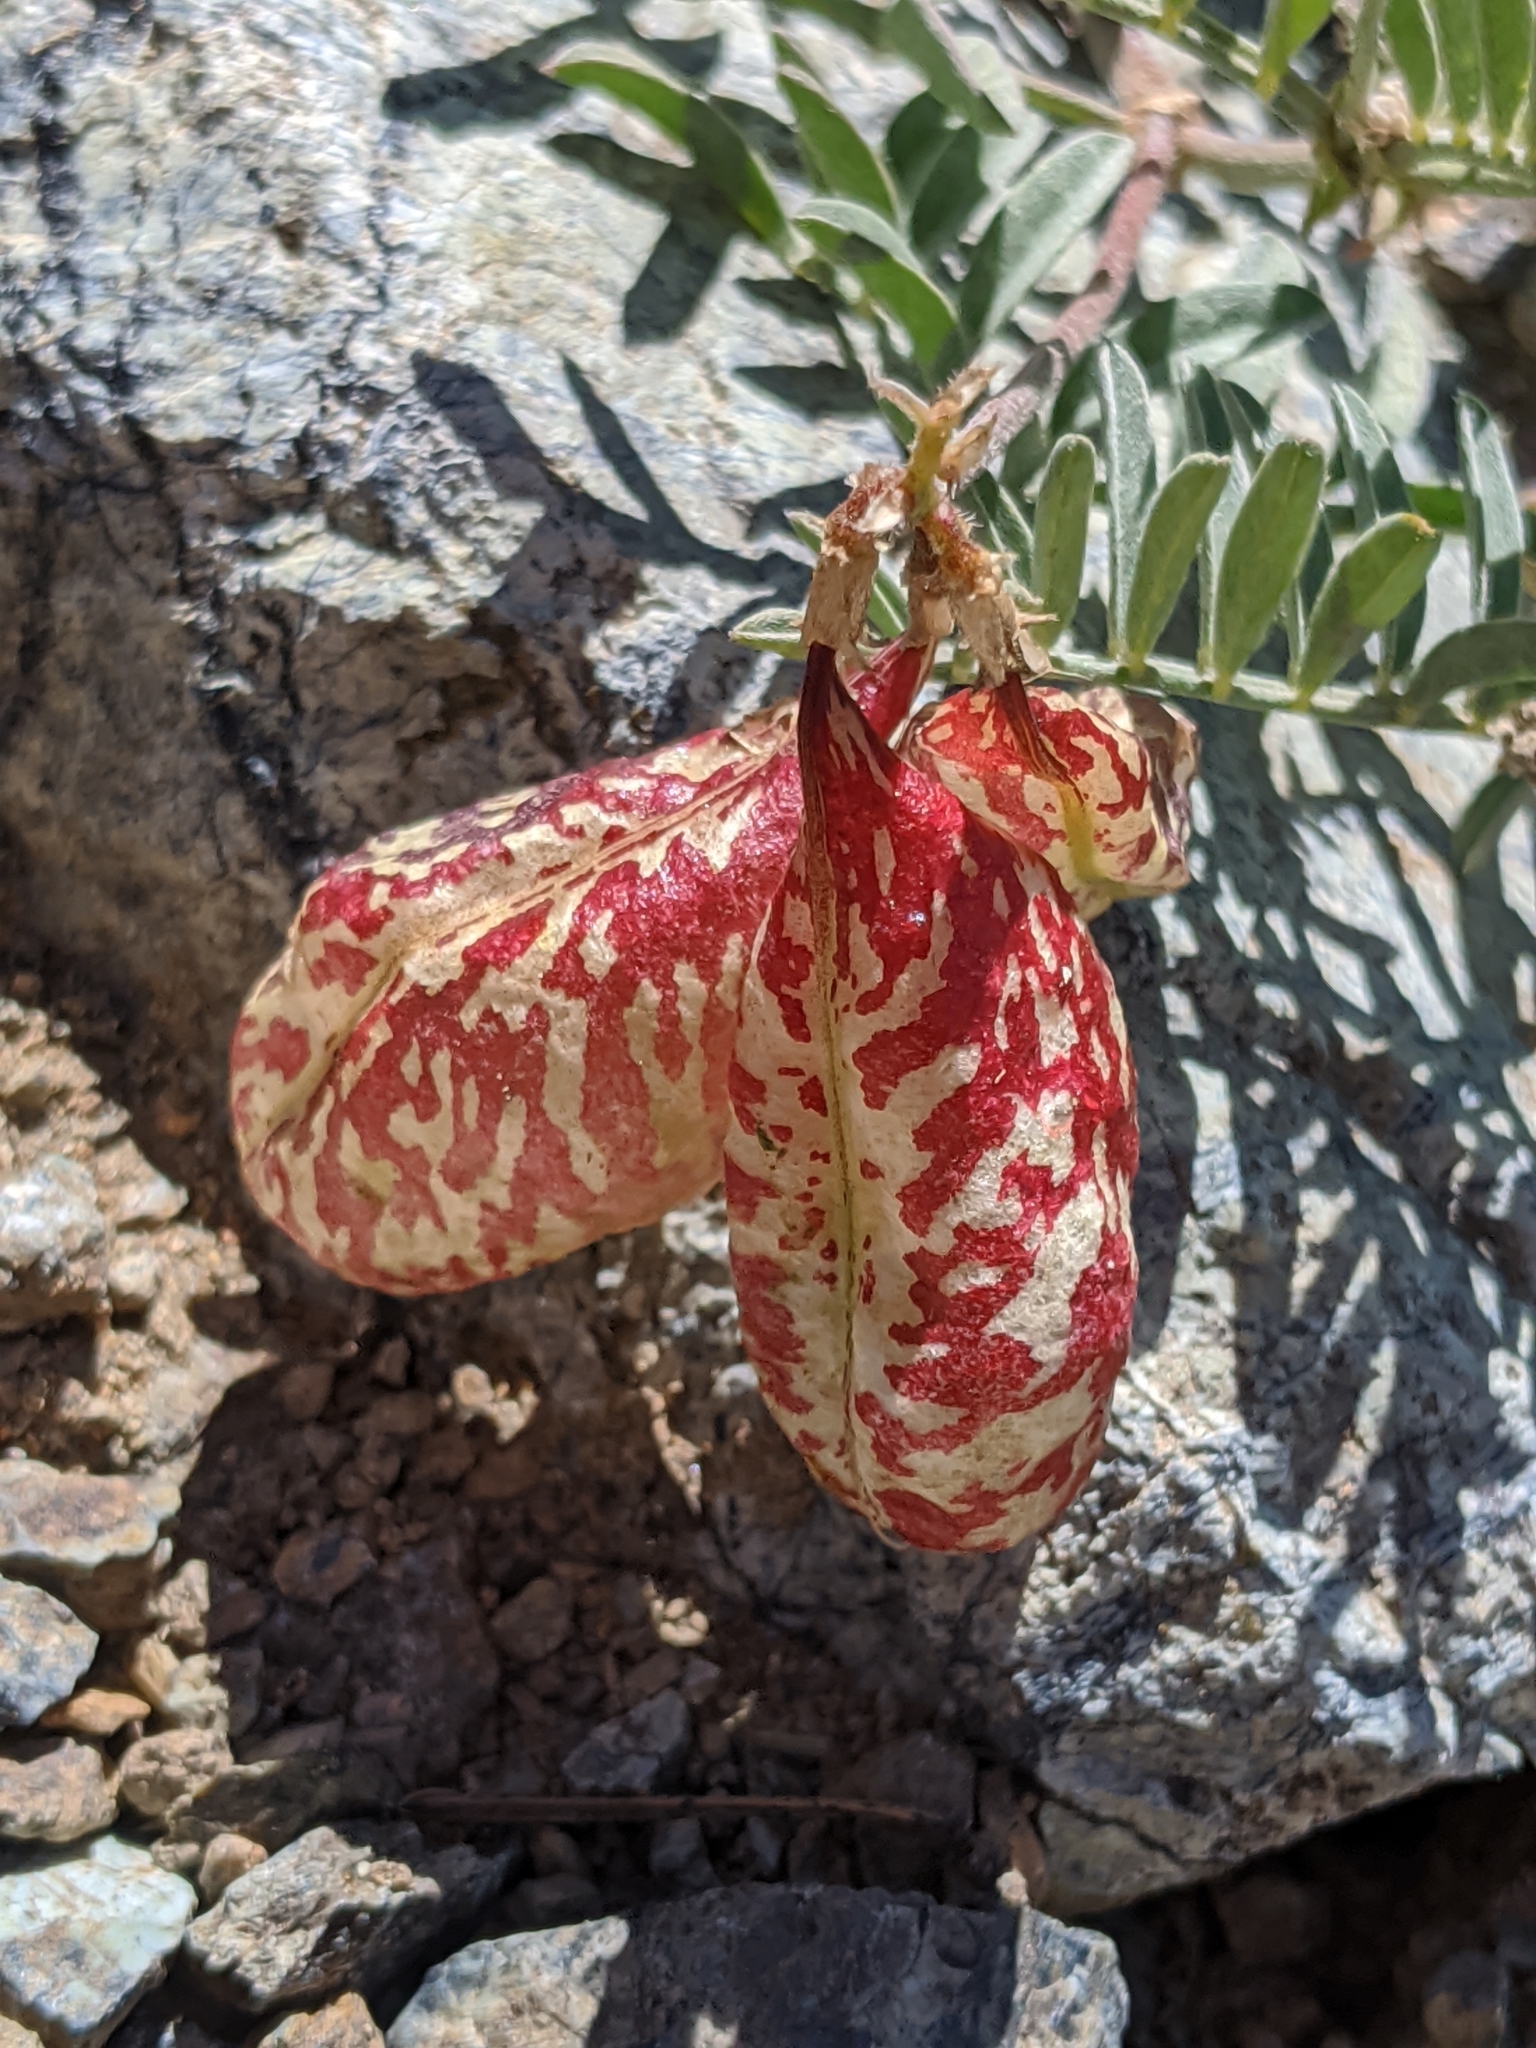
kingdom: Plantae
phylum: Tracheophyta
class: Magnoliopsida
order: Fabales
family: Fabaceae
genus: Astragalus
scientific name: Astragalus whitneyi
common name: Balloonpod milkvetch
